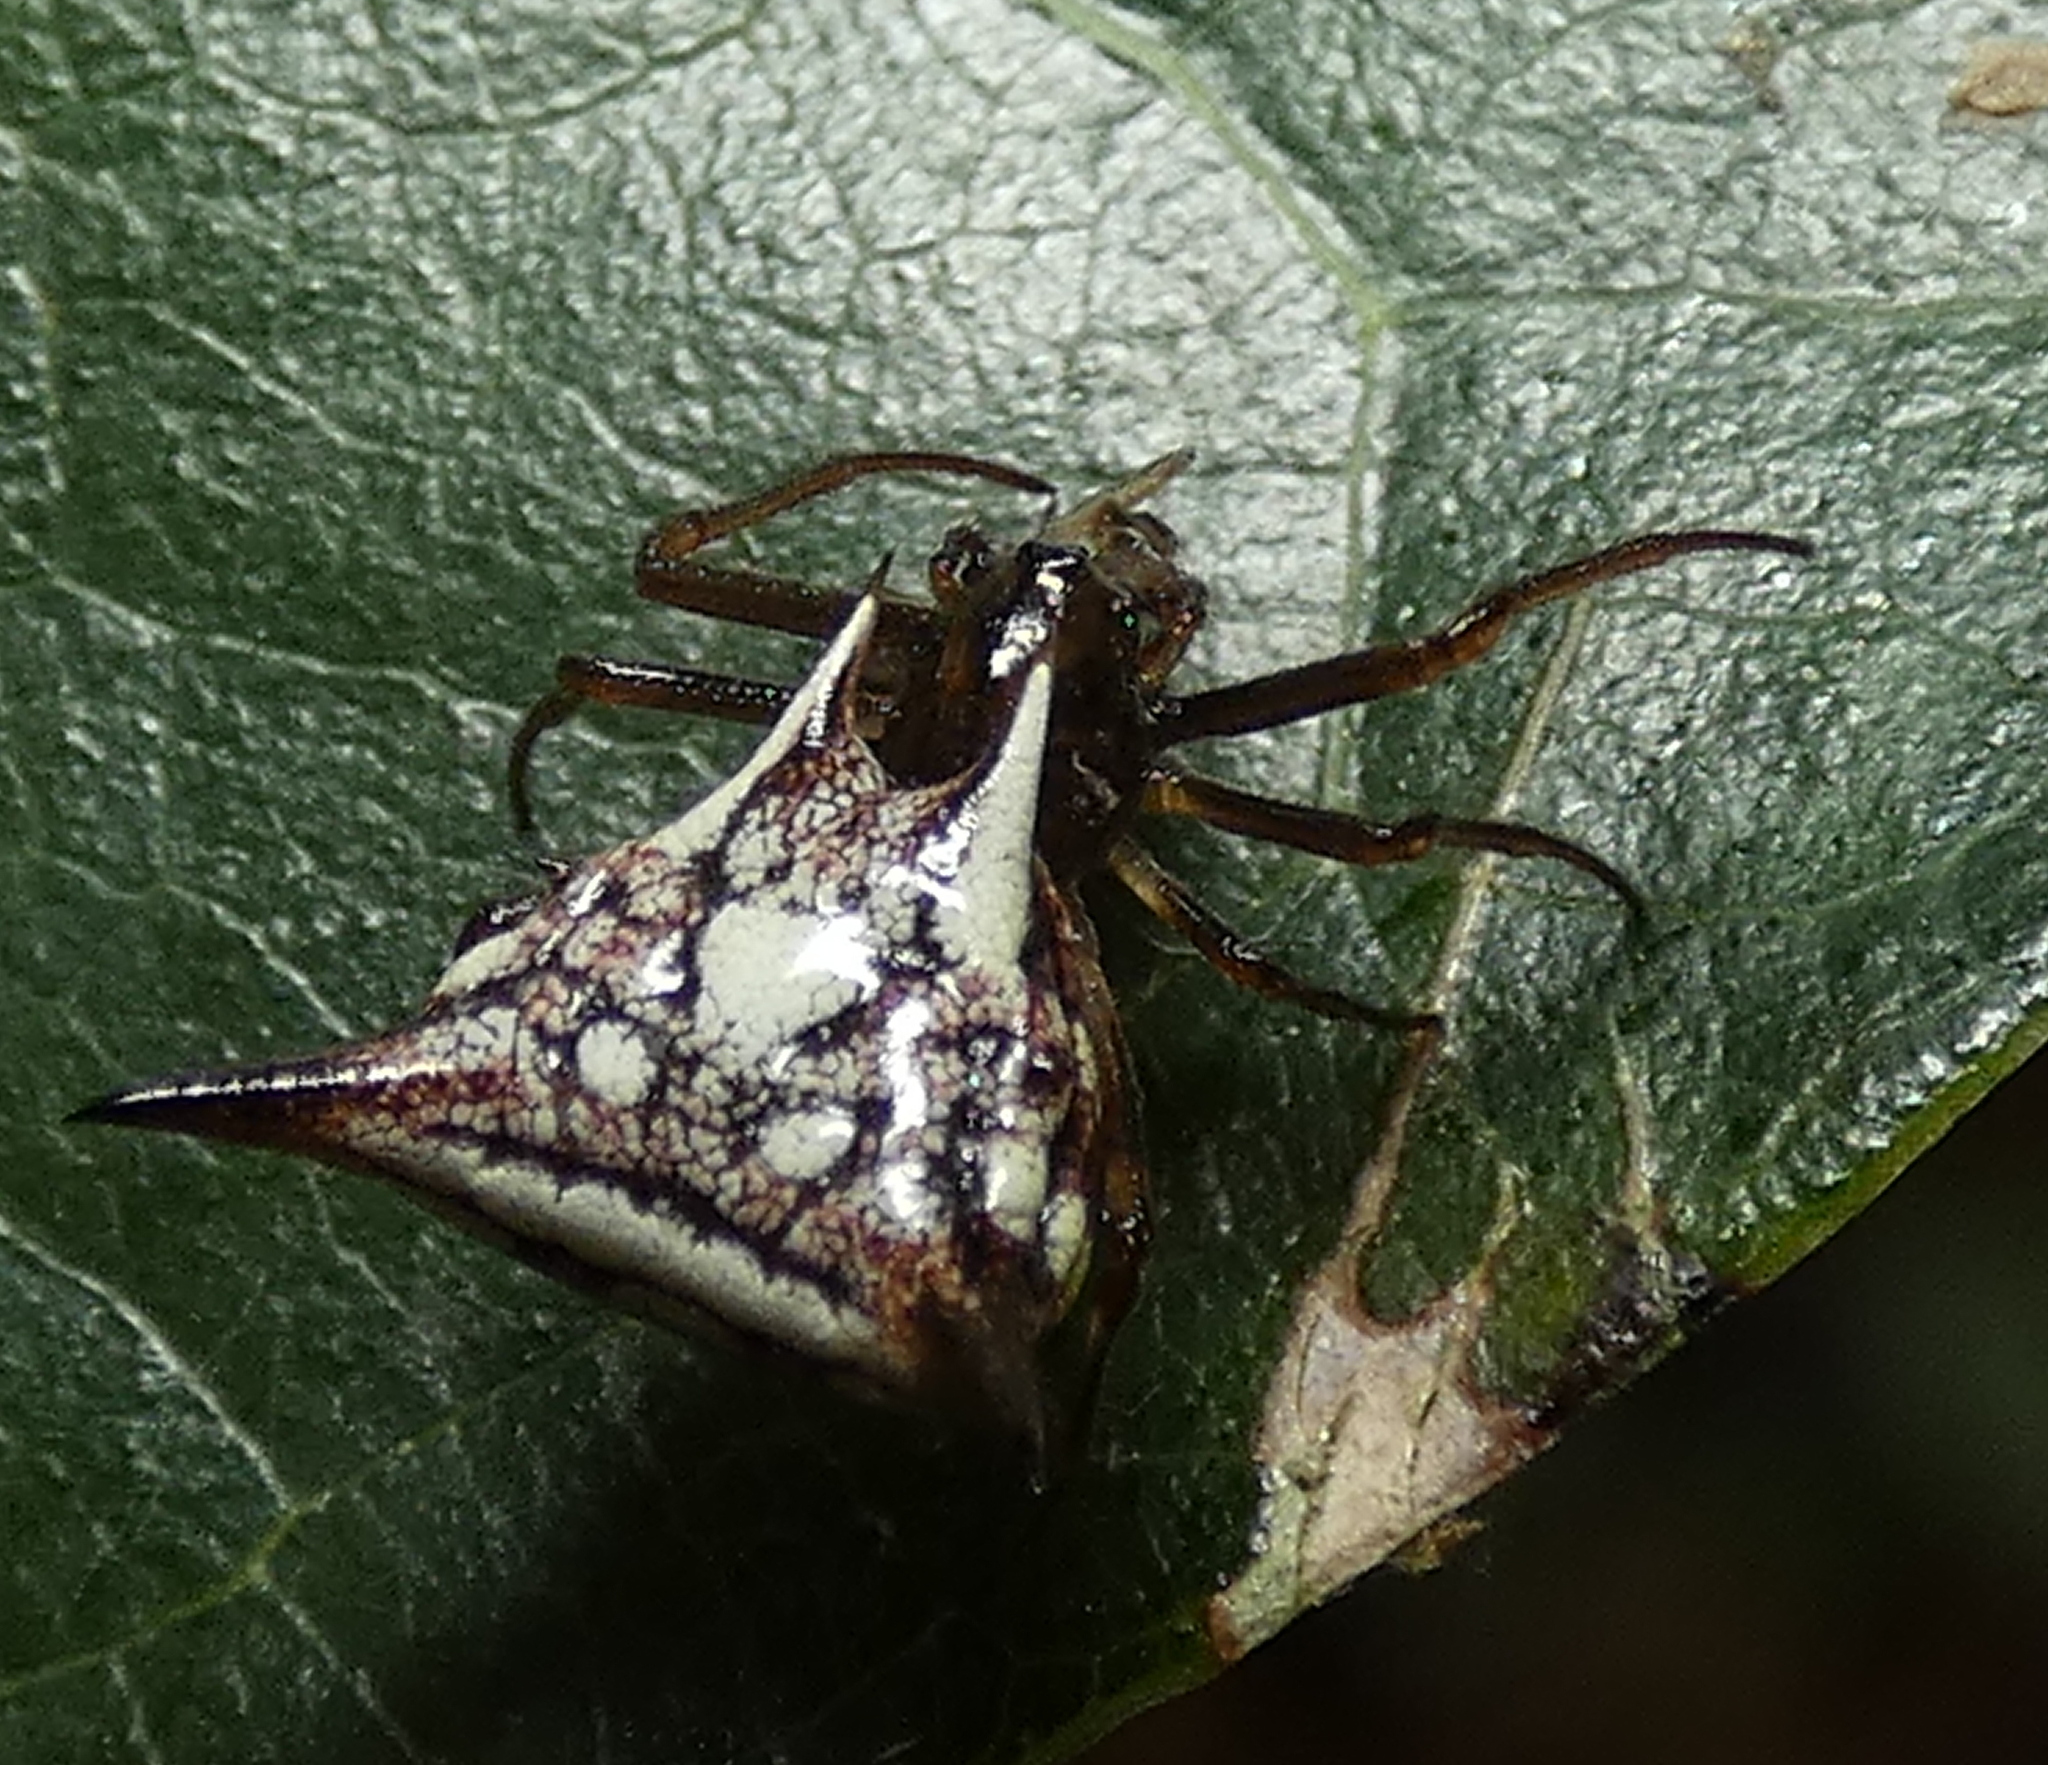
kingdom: Animalia
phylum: Arthropoda
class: Arachnida
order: Araneae
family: Araneidae
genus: Micrathena
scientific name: Micrathena evansi
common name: Orb weavers
